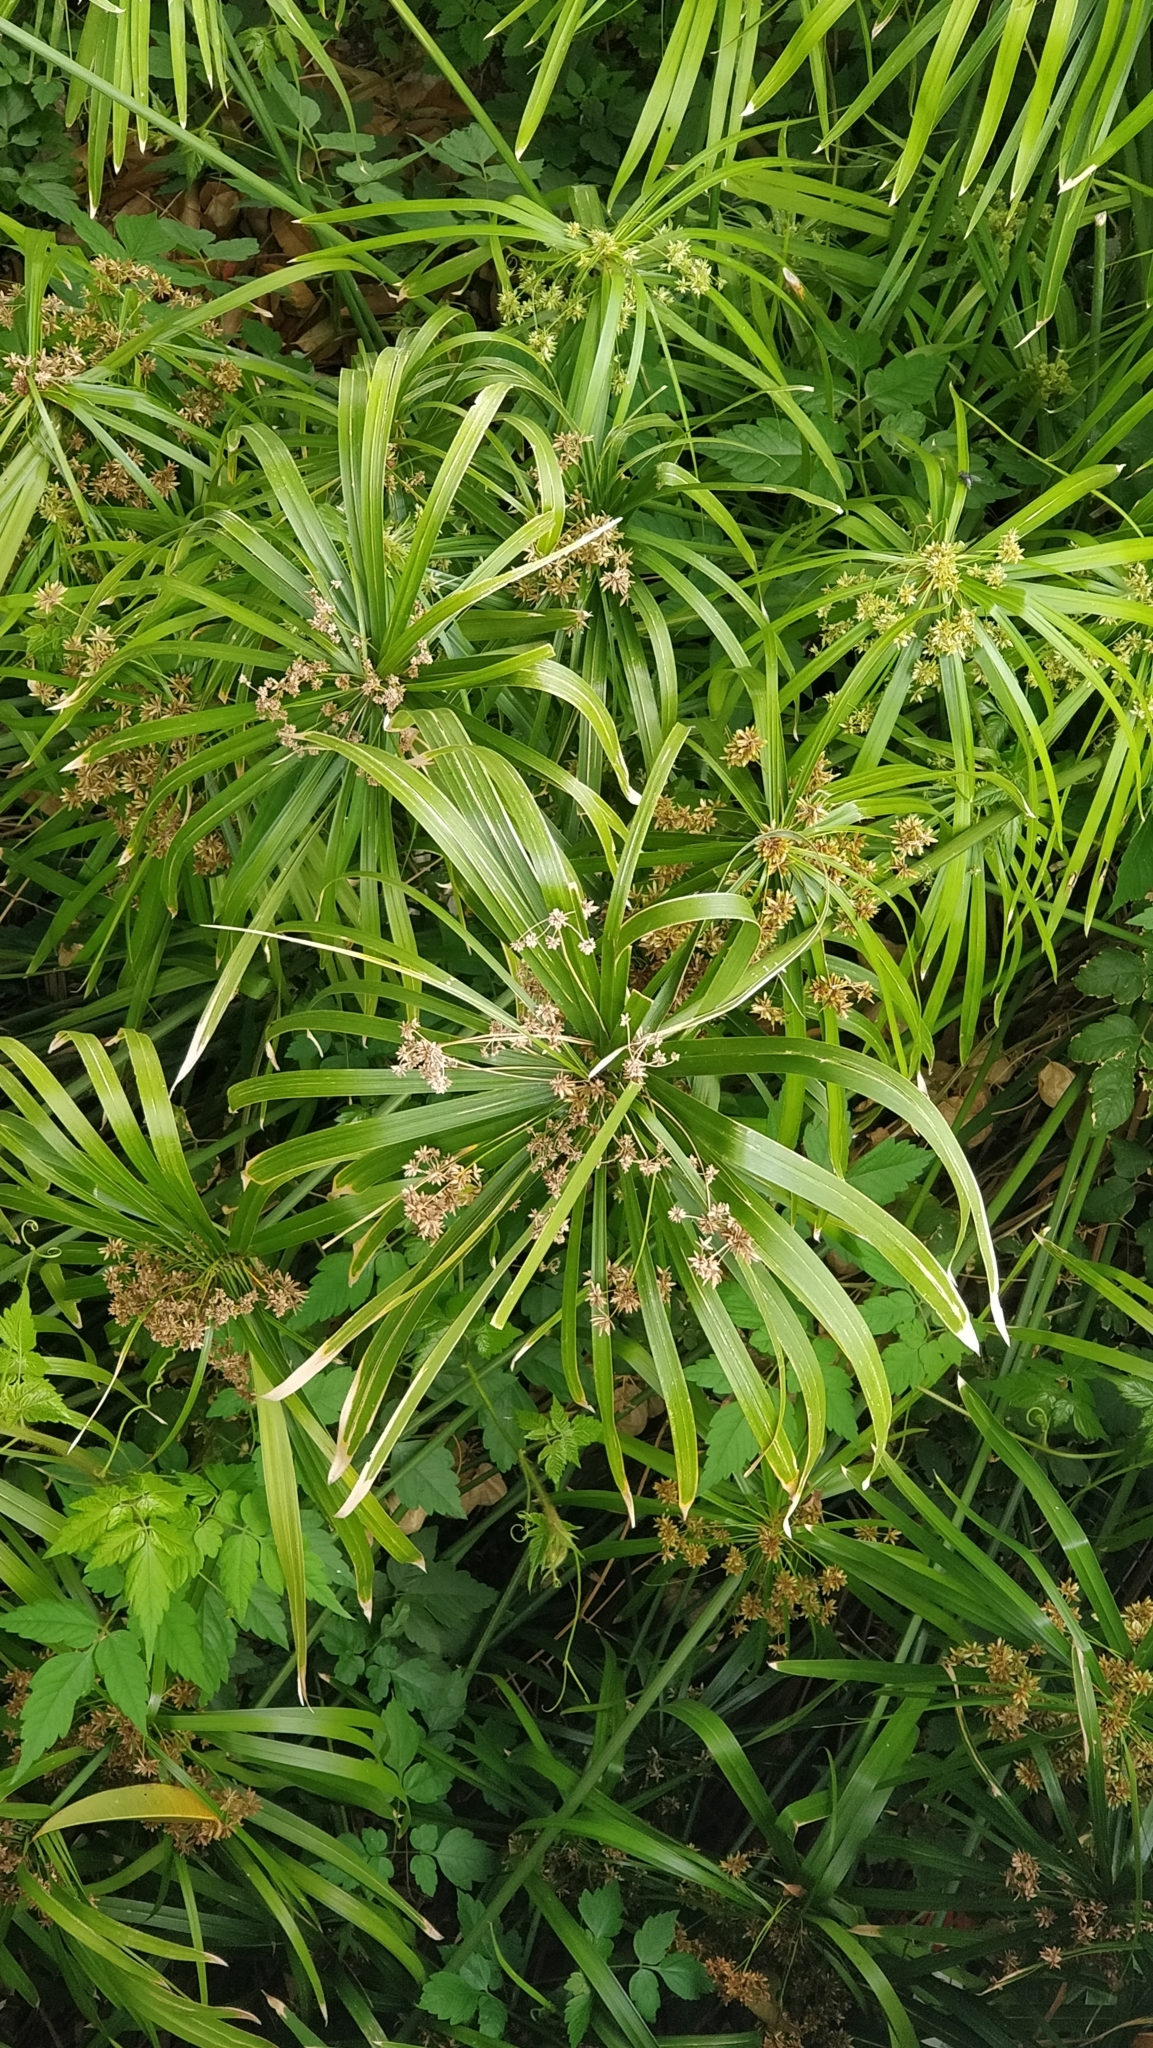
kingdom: Plantae
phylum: Tracheophyta
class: Liliopsida
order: Poales
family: Cyperaceae
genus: Cyperus
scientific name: Cyperus alternifolius
